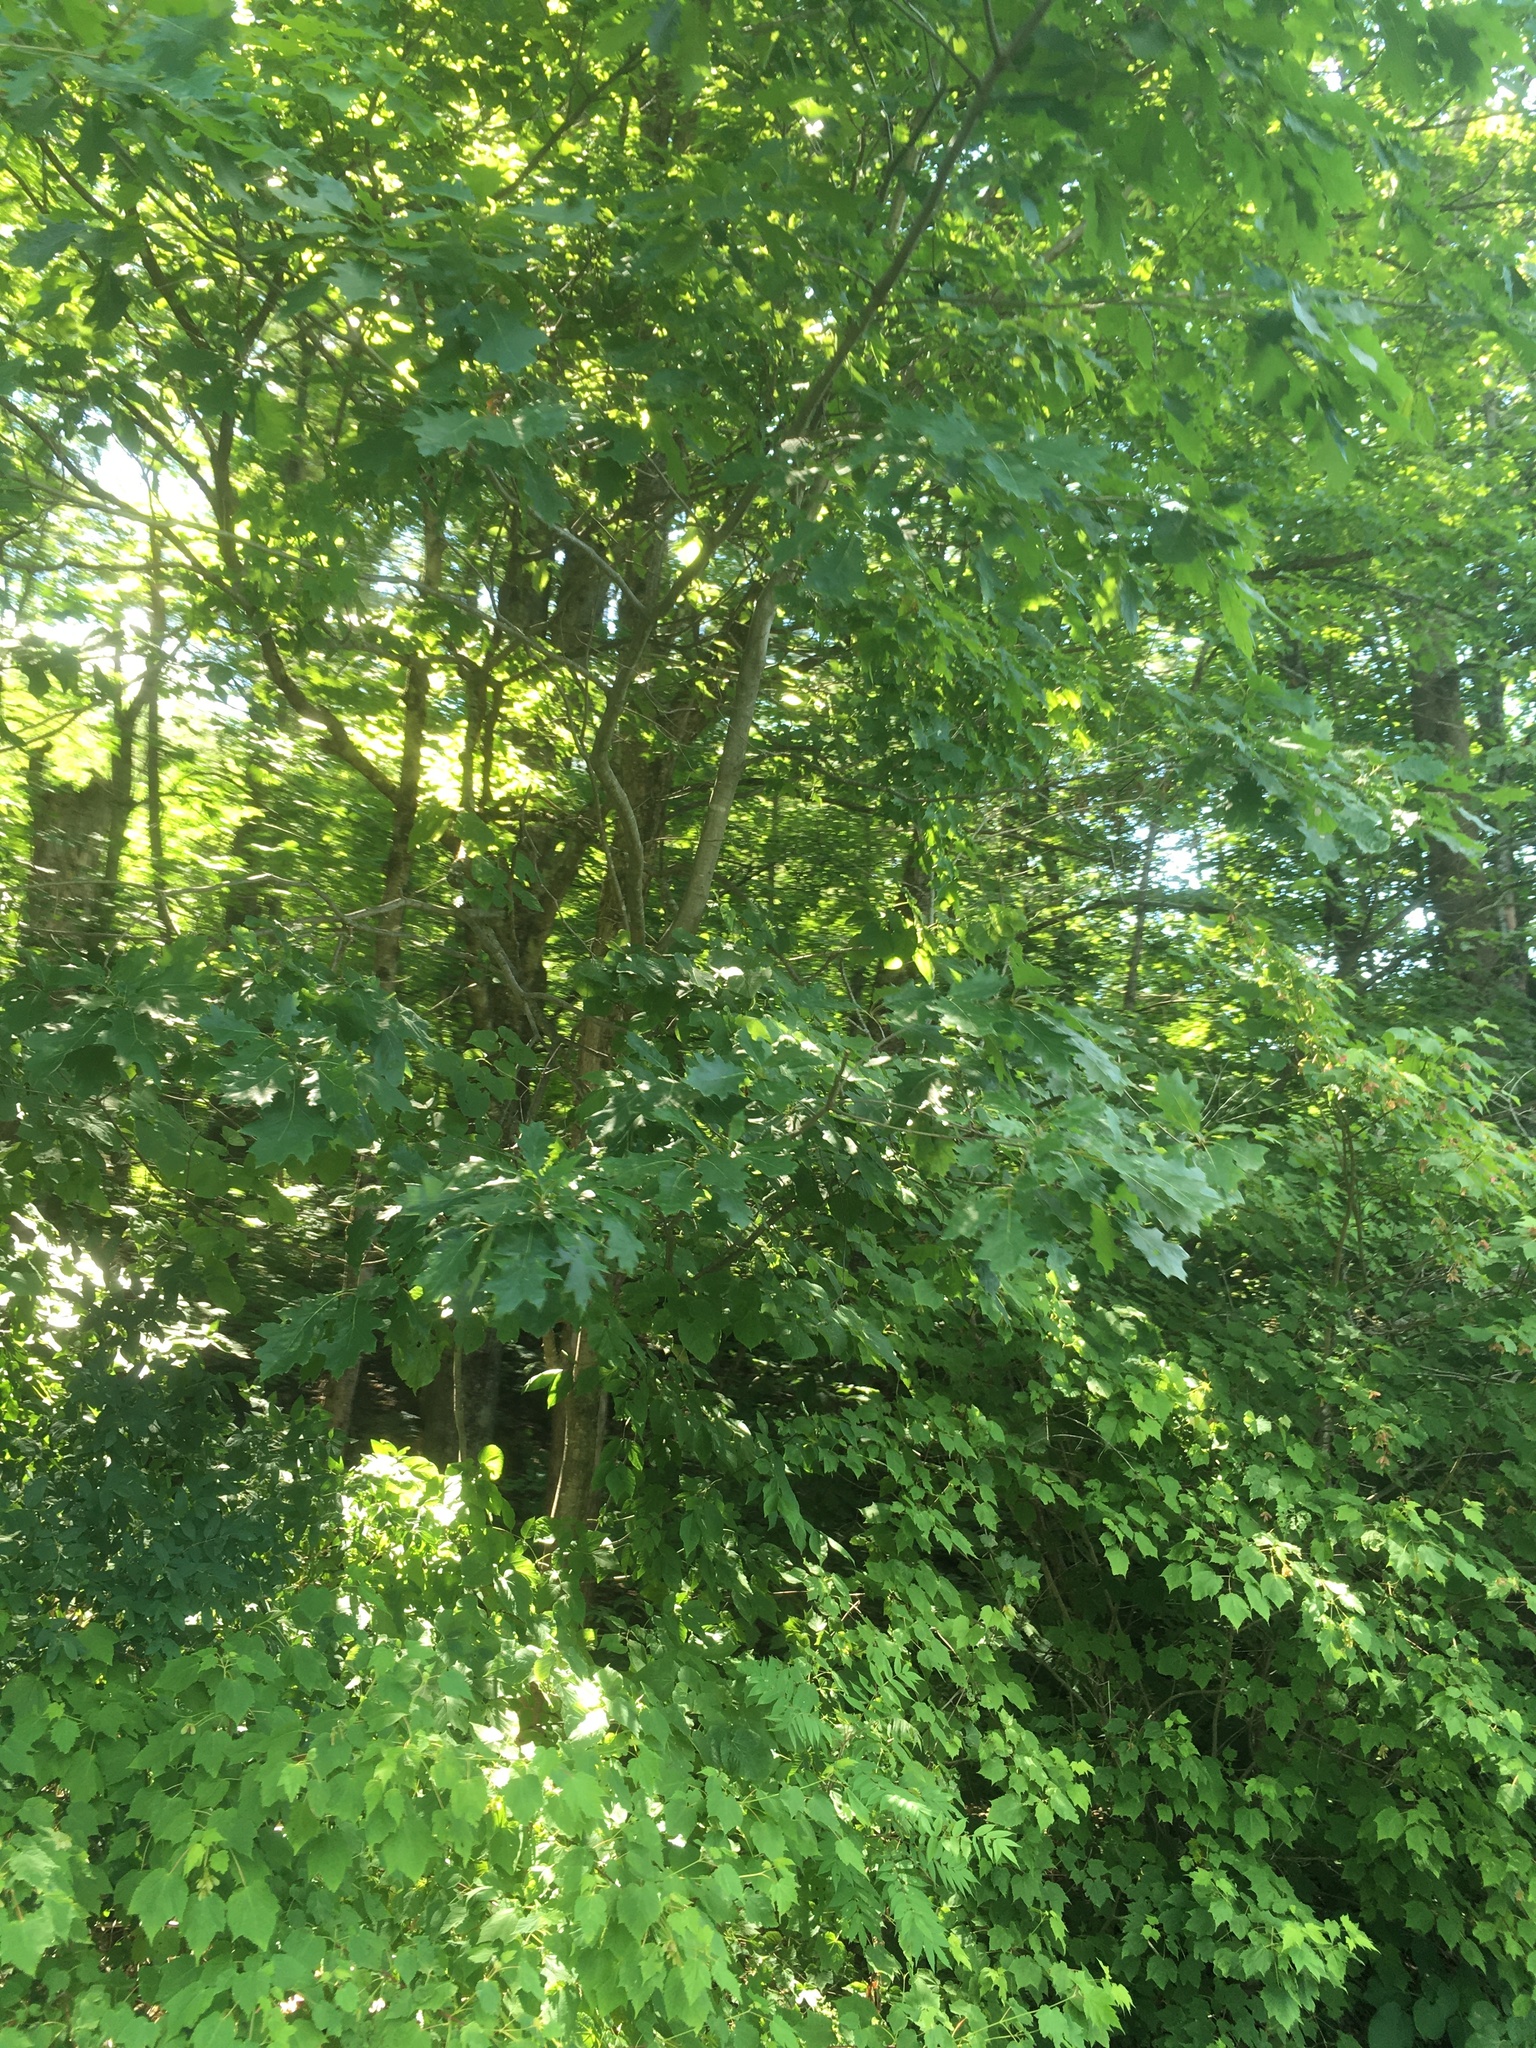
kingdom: Plantae
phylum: Tracheophyta
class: Magnoliopsida
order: Fagales
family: Fagaceae
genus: Quercus
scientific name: Quercus rubra
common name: Red oak
